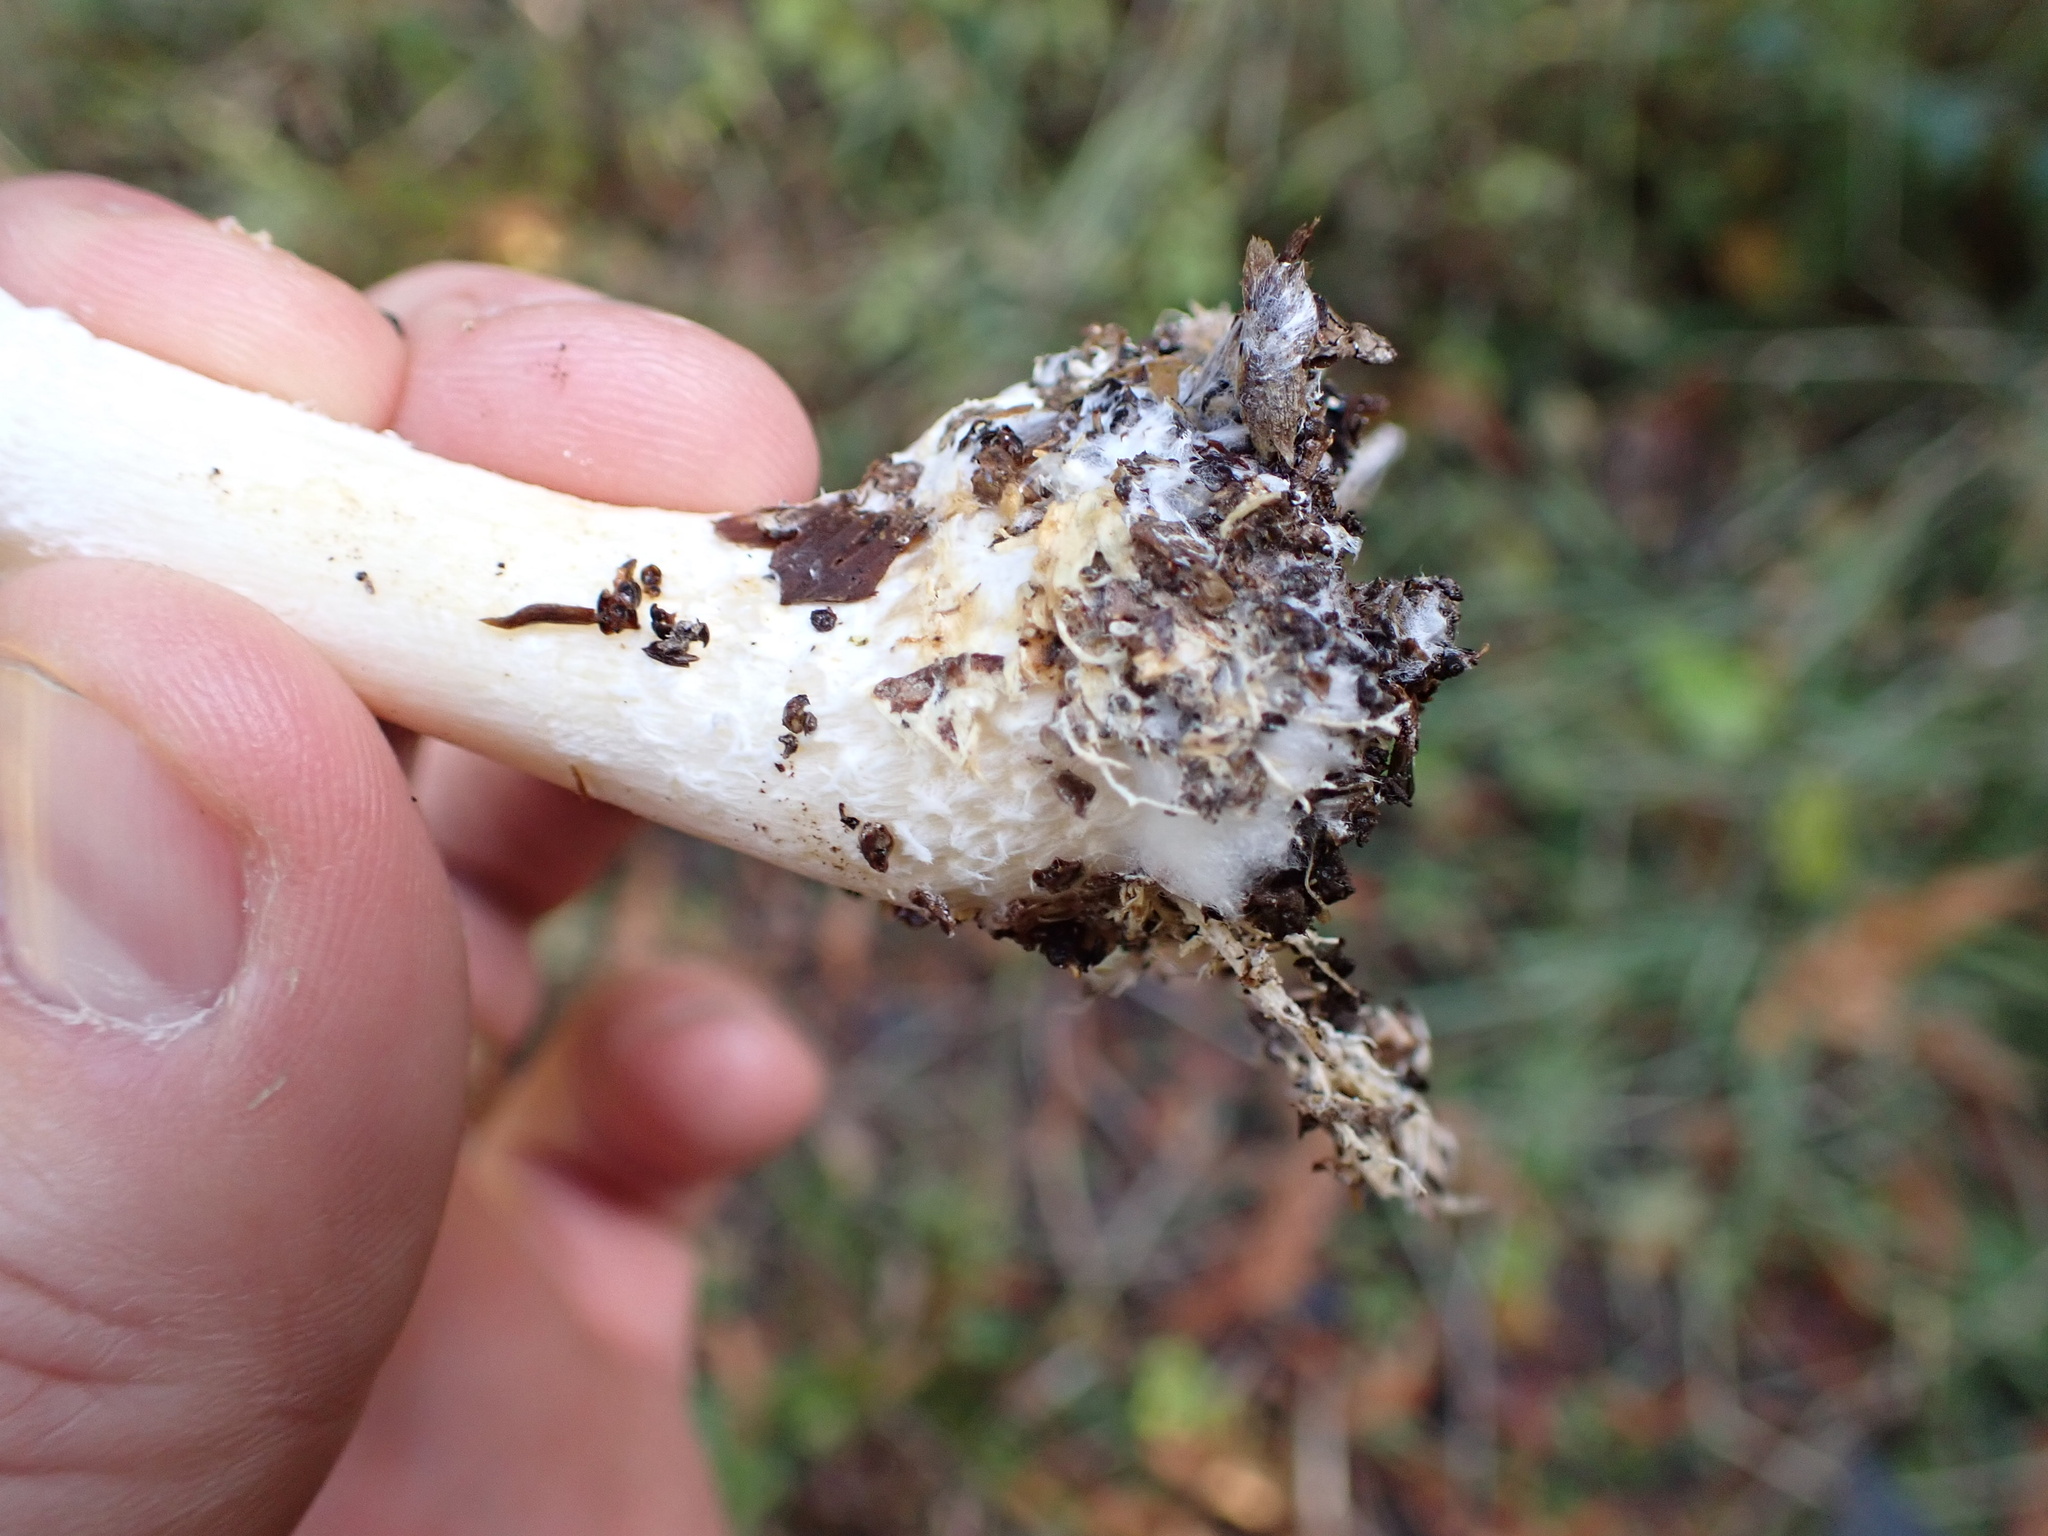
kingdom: Fungi
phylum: Basidiomycota
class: Agaricomycetes
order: Agaricales
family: Strophariaceae
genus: Stropharia
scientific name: Stropharia ambigua
